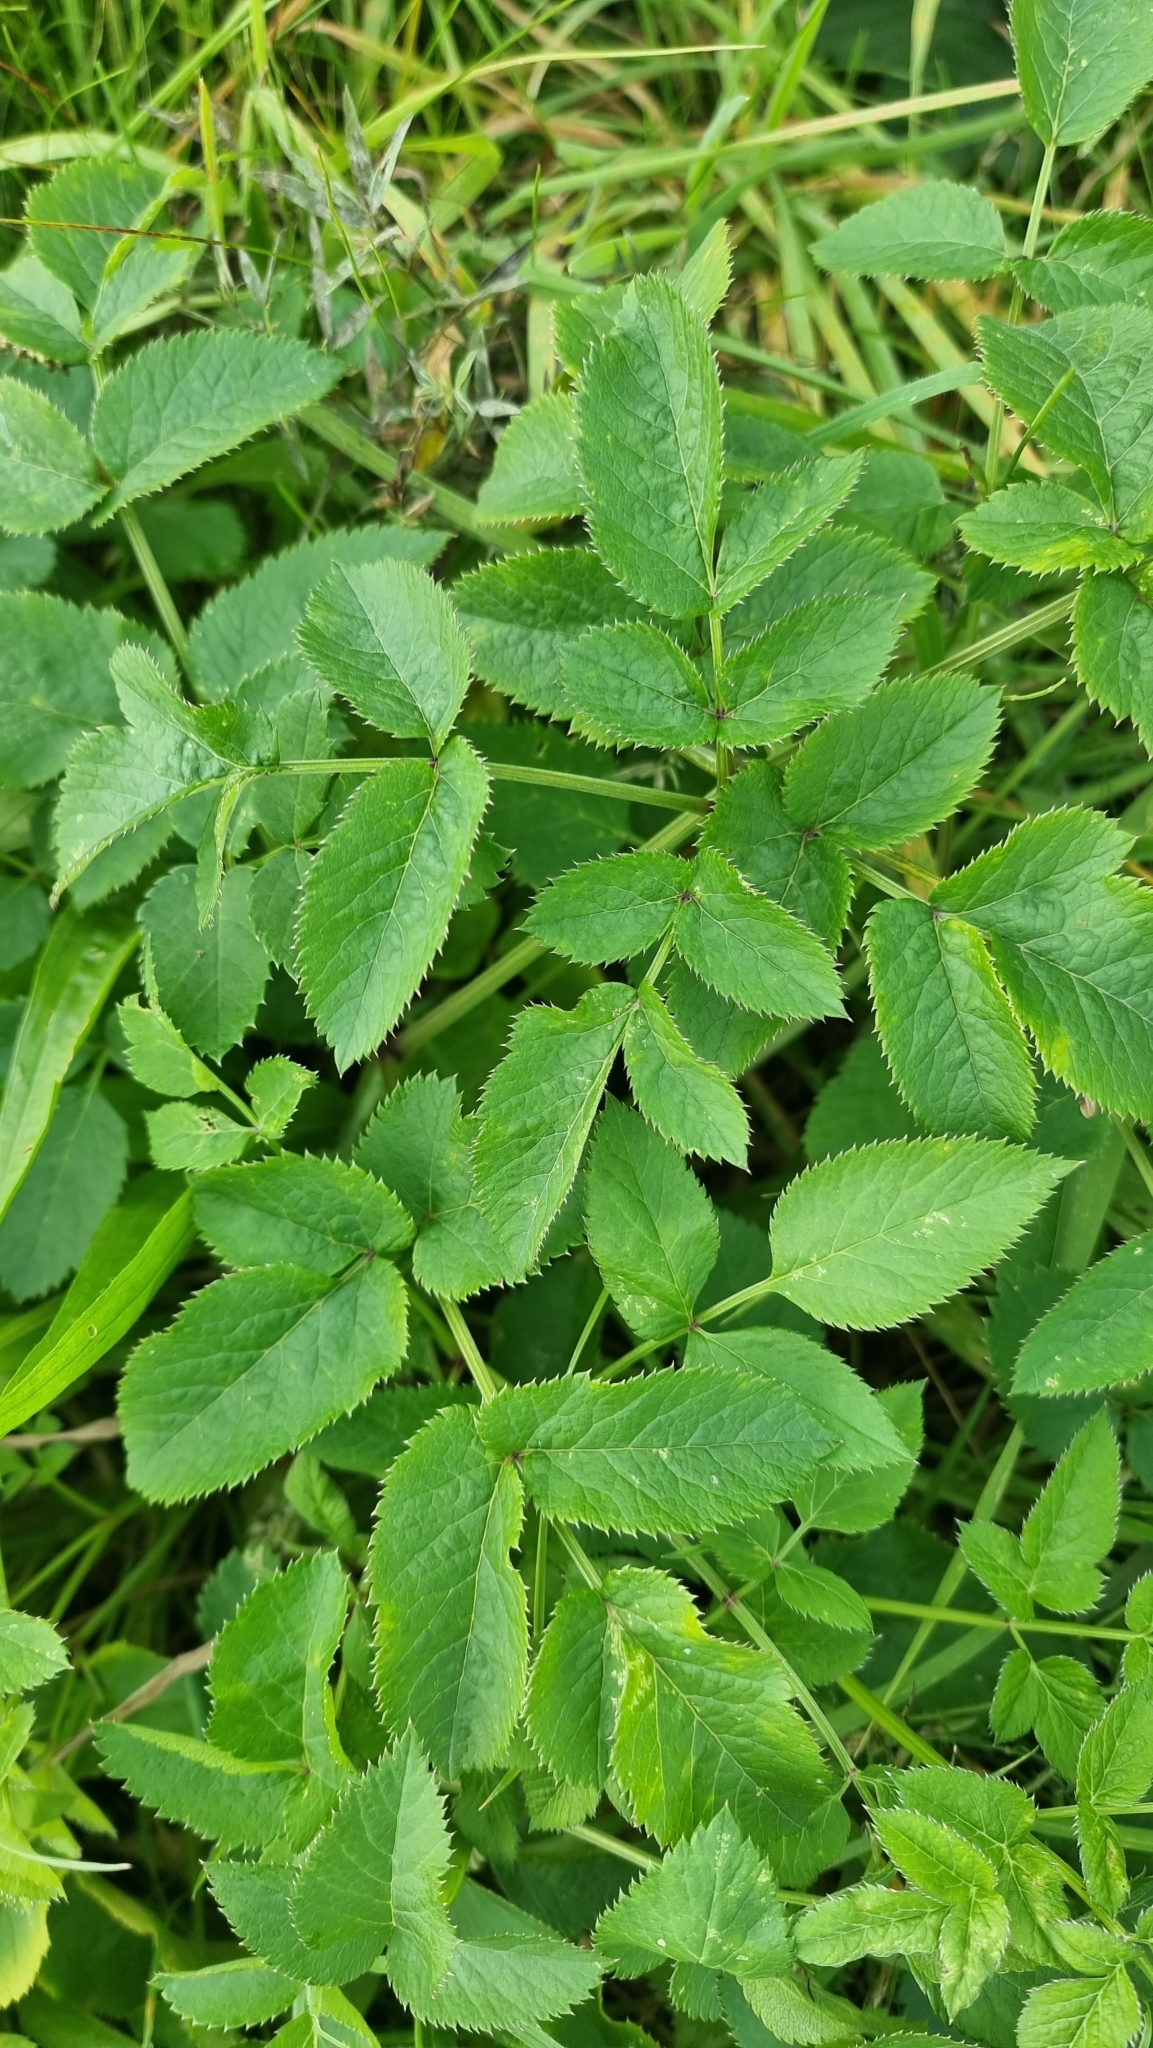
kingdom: Plantae
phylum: Tracheophyta
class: Magnoliopsida
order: Apiales
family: Apiaceae
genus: Angelica
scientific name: Angelica sylvestris
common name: Wild angelica
